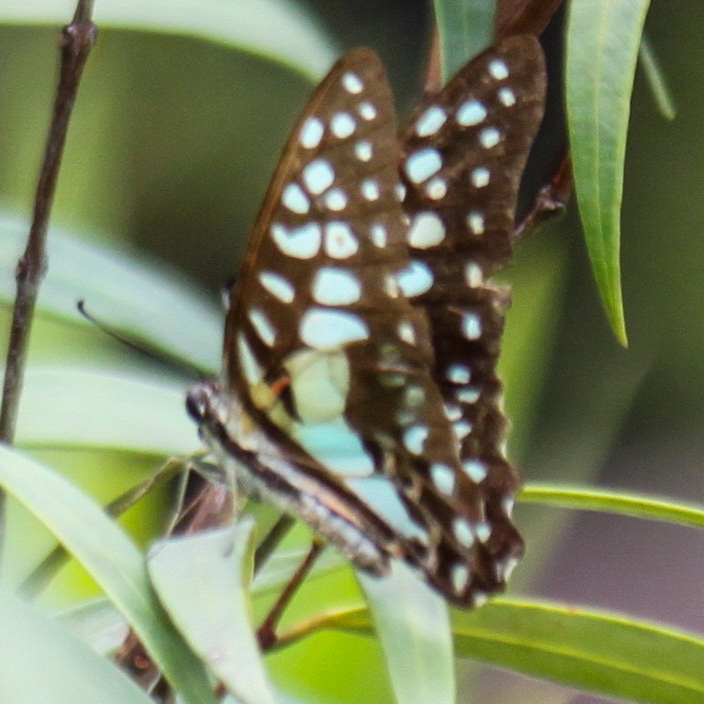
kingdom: Animalia
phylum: Arthropoda
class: Insecta
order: Lepidoptera
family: Papilionidae
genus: Graphium
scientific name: Graphium doson
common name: Common jay
